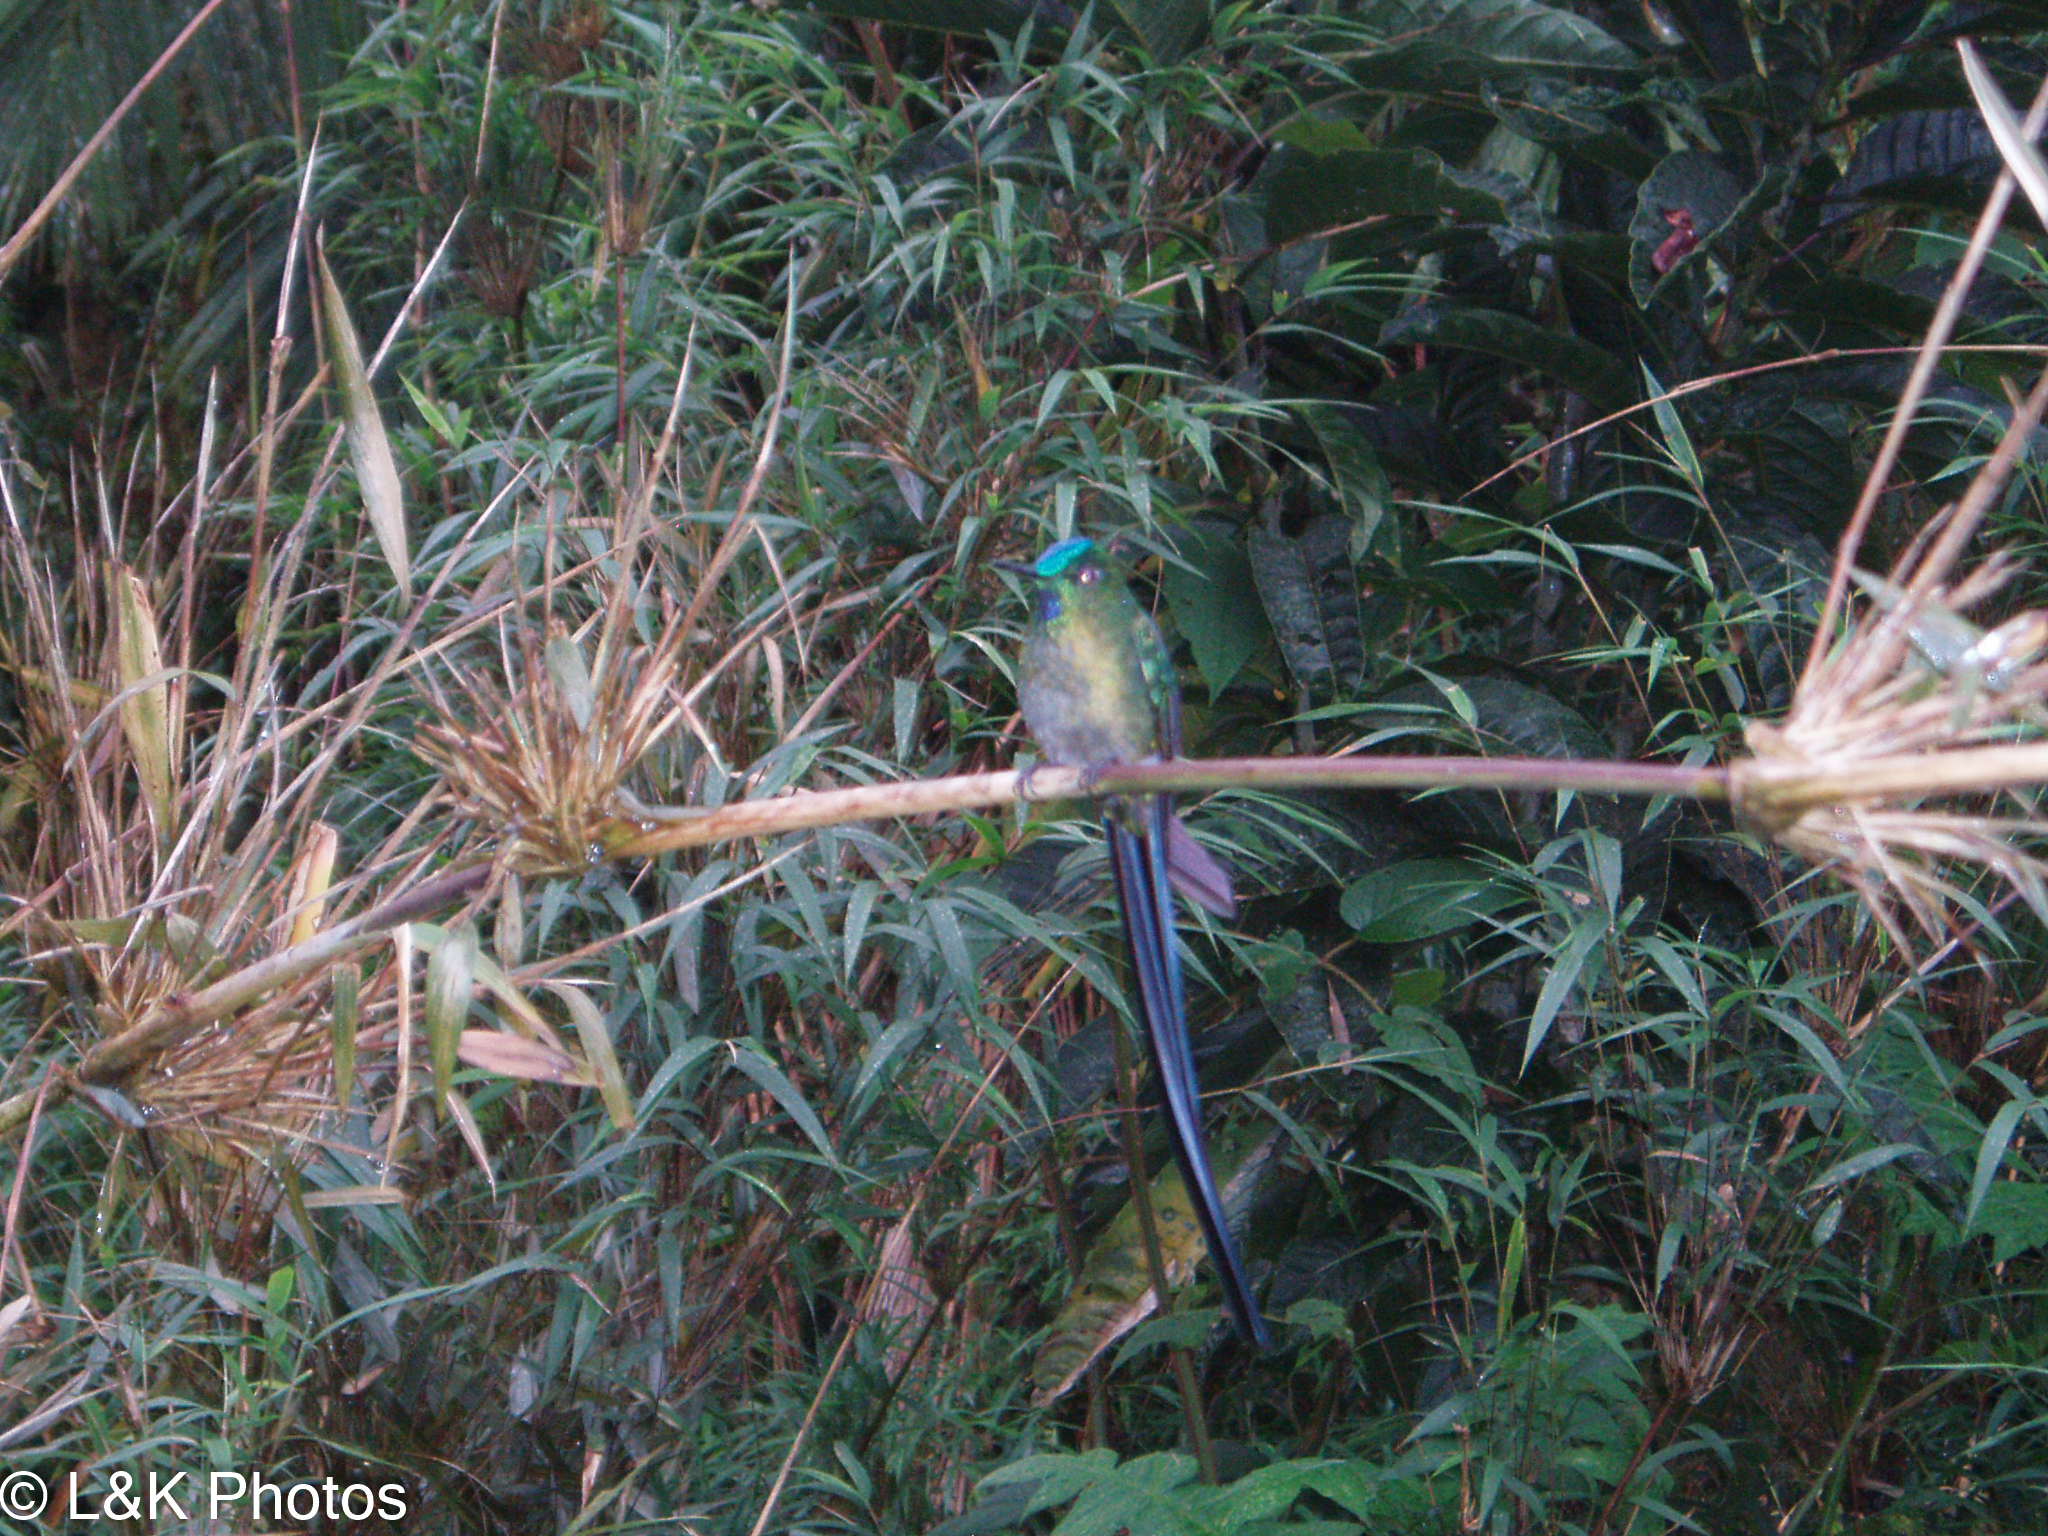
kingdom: Animalia
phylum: Chordata
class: Aves
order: Apodiformes
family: Trochilidae
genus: Aglaiocercus
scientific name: Aglaiocercus kingii
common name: Long-tailed sylph
